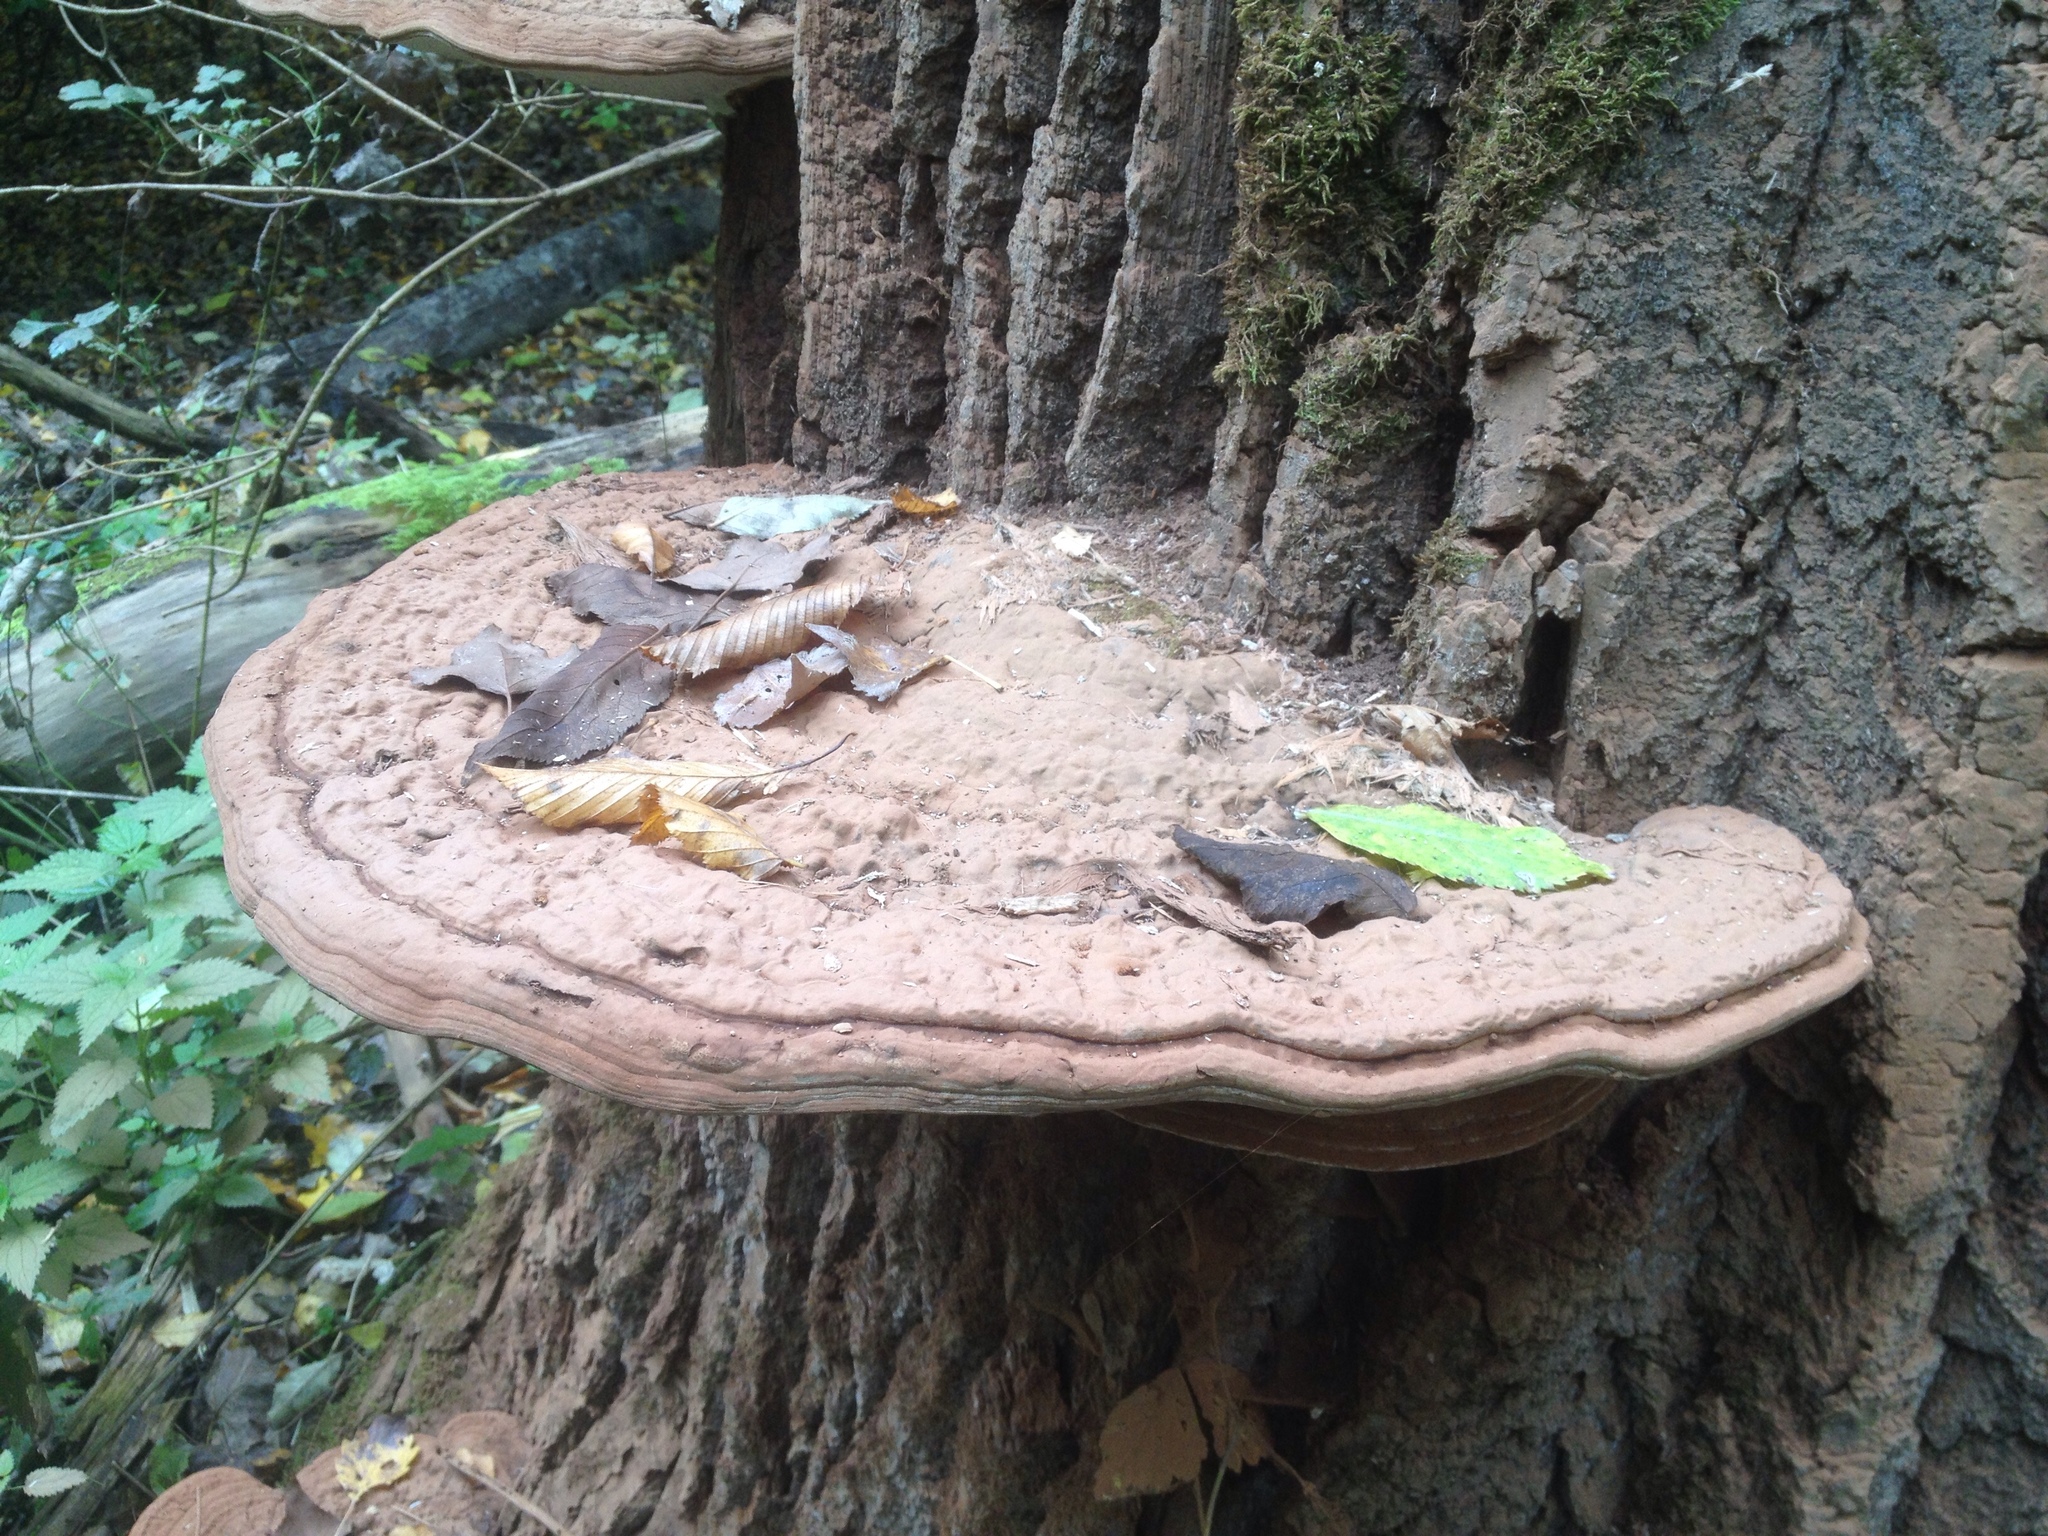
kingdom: Fungi
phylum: Basidiomycota
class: Agaricomycetes
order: Polyporales
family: Polyporaceae
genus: Ganoderma
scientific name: Ganoderma applanatum
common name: Artist's bracket
